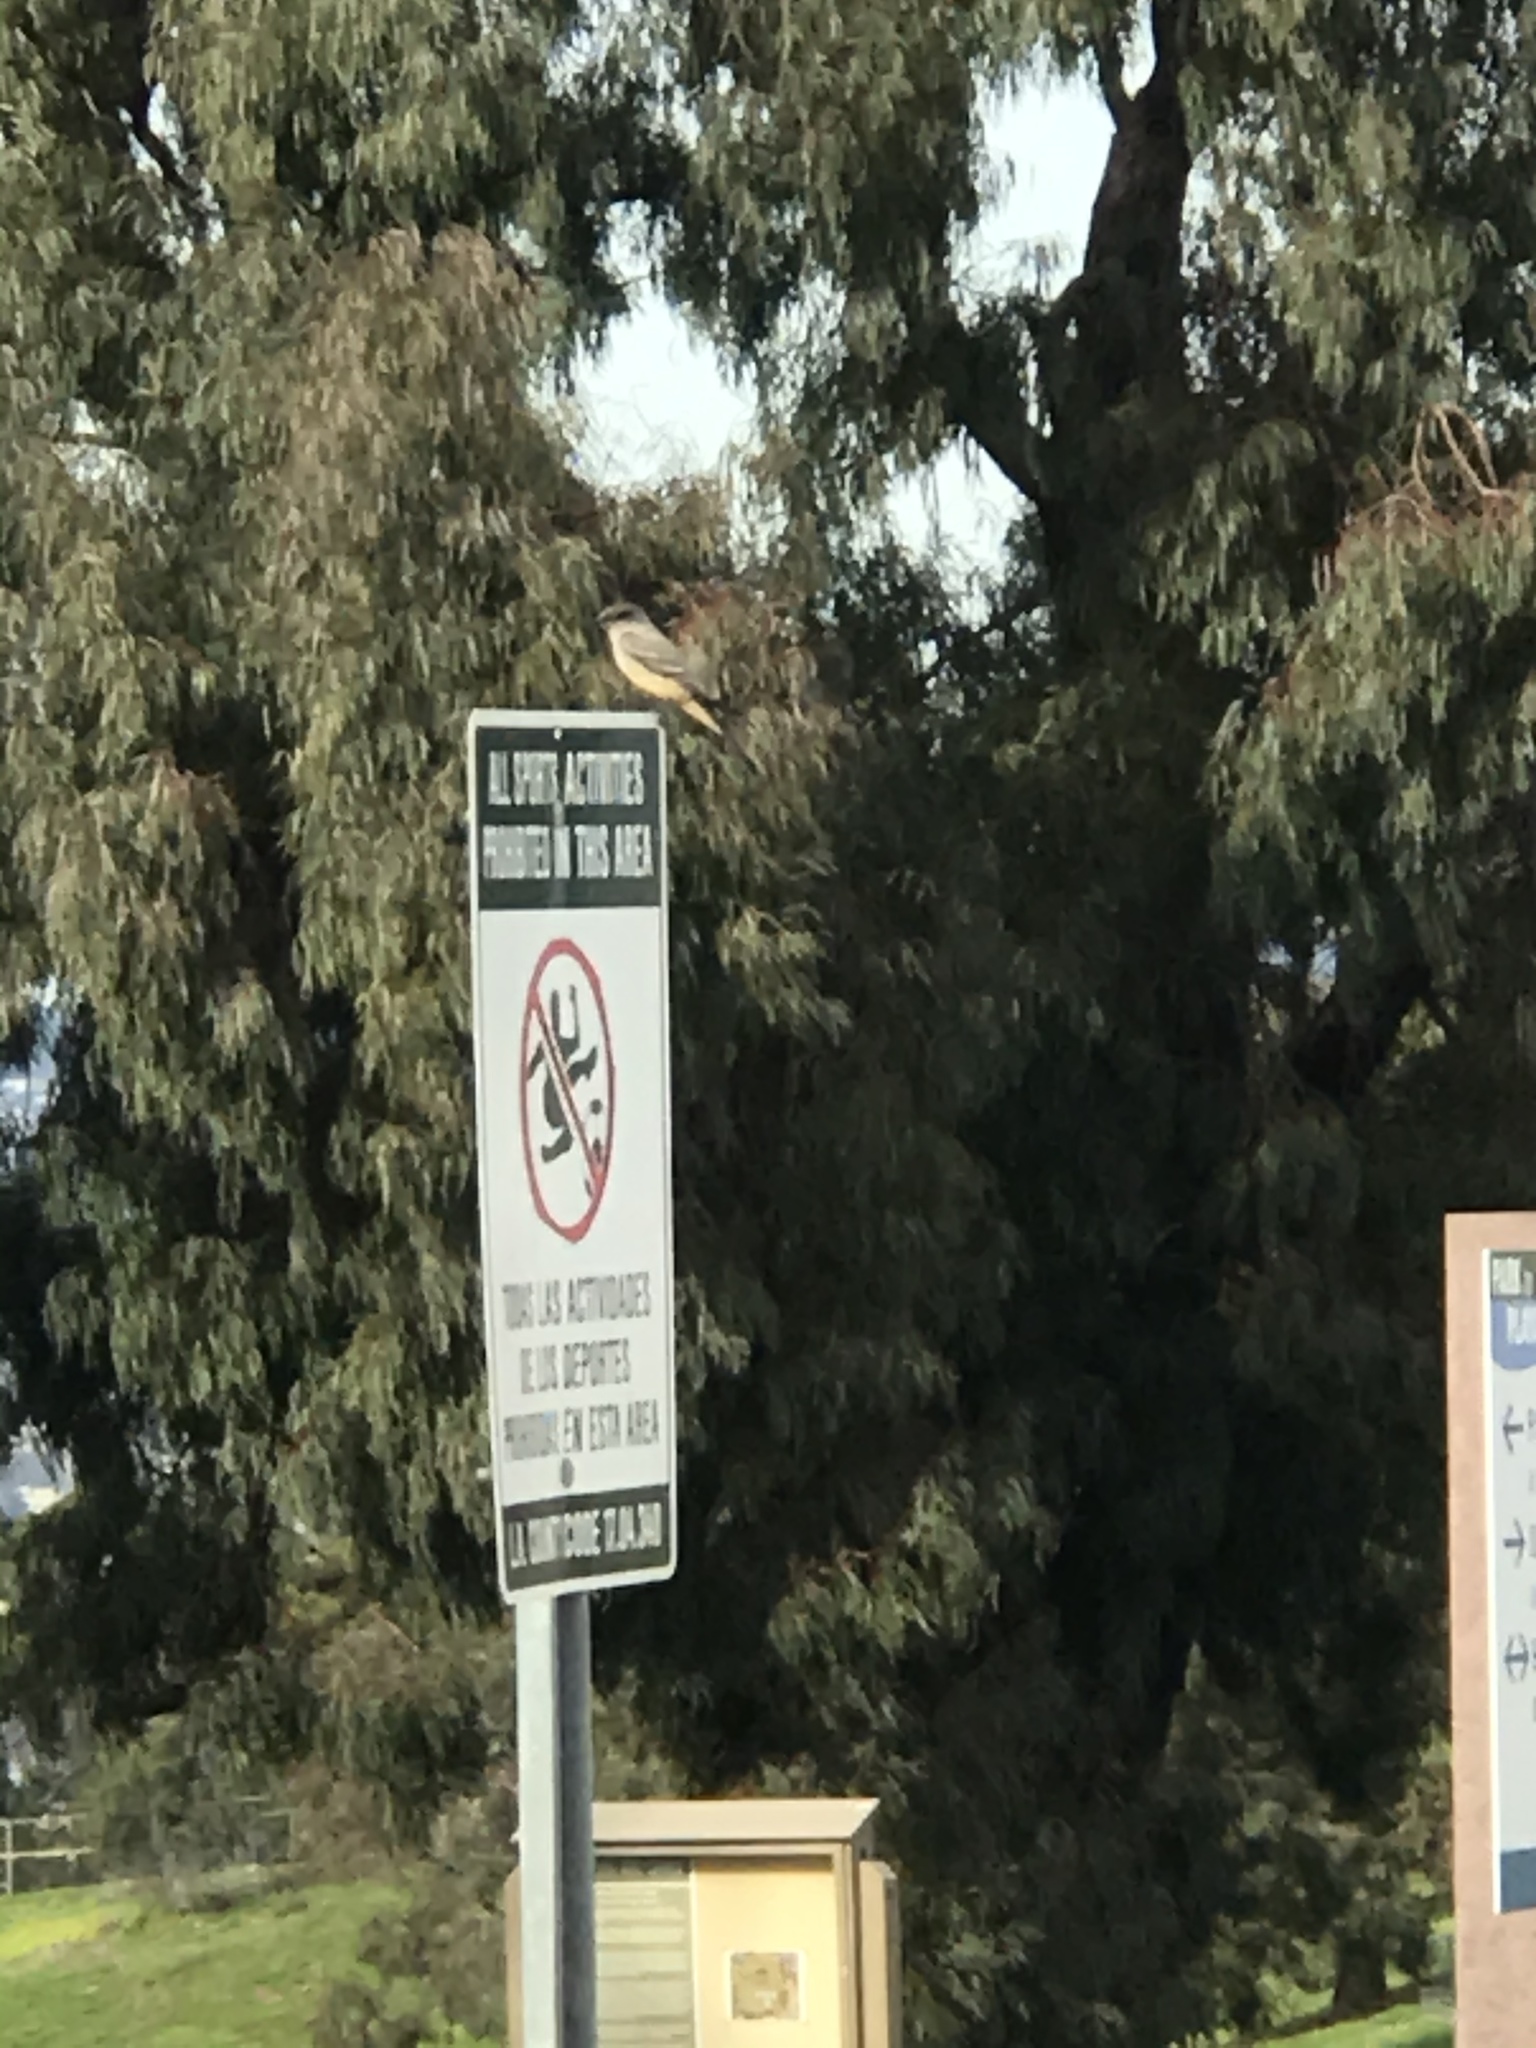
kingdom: Animalia
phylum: Chordata
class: Aves
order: Passeriformes
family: Tyrannidae
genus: Sayornis
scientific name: Sayornis saya
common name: Say's phoebe
